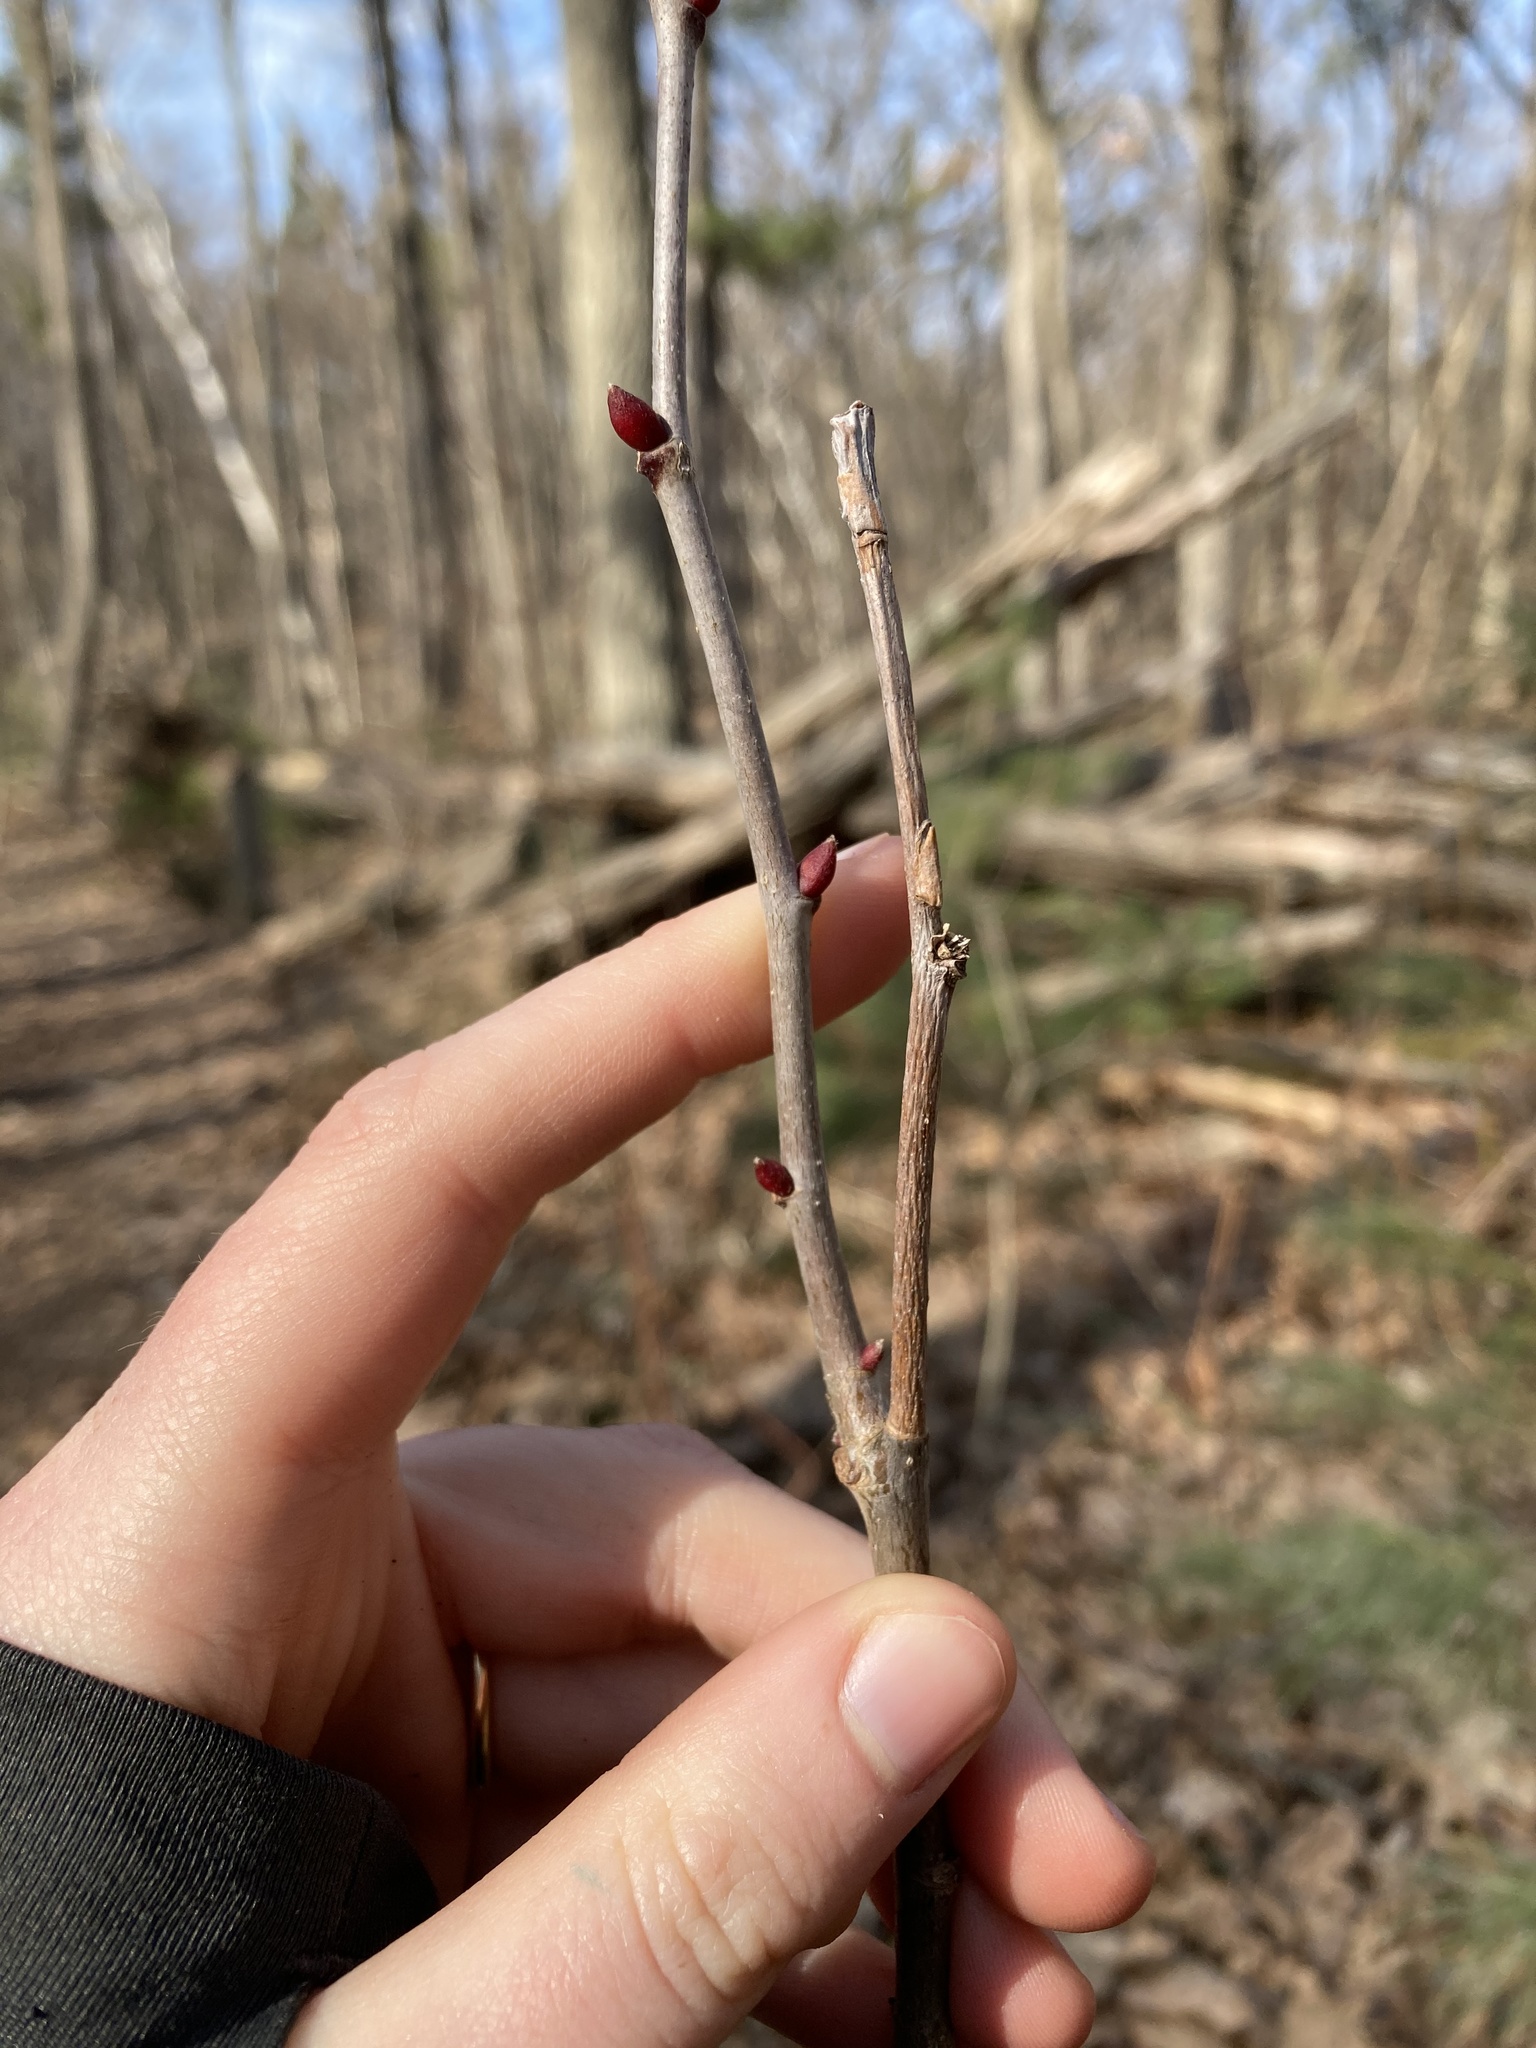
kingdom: Plantae
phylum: Tracheophyta
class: Magnoliopsida
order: Malvales
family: Malvaceae
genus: Tilia
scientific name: Tilia americana
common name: Basswood
